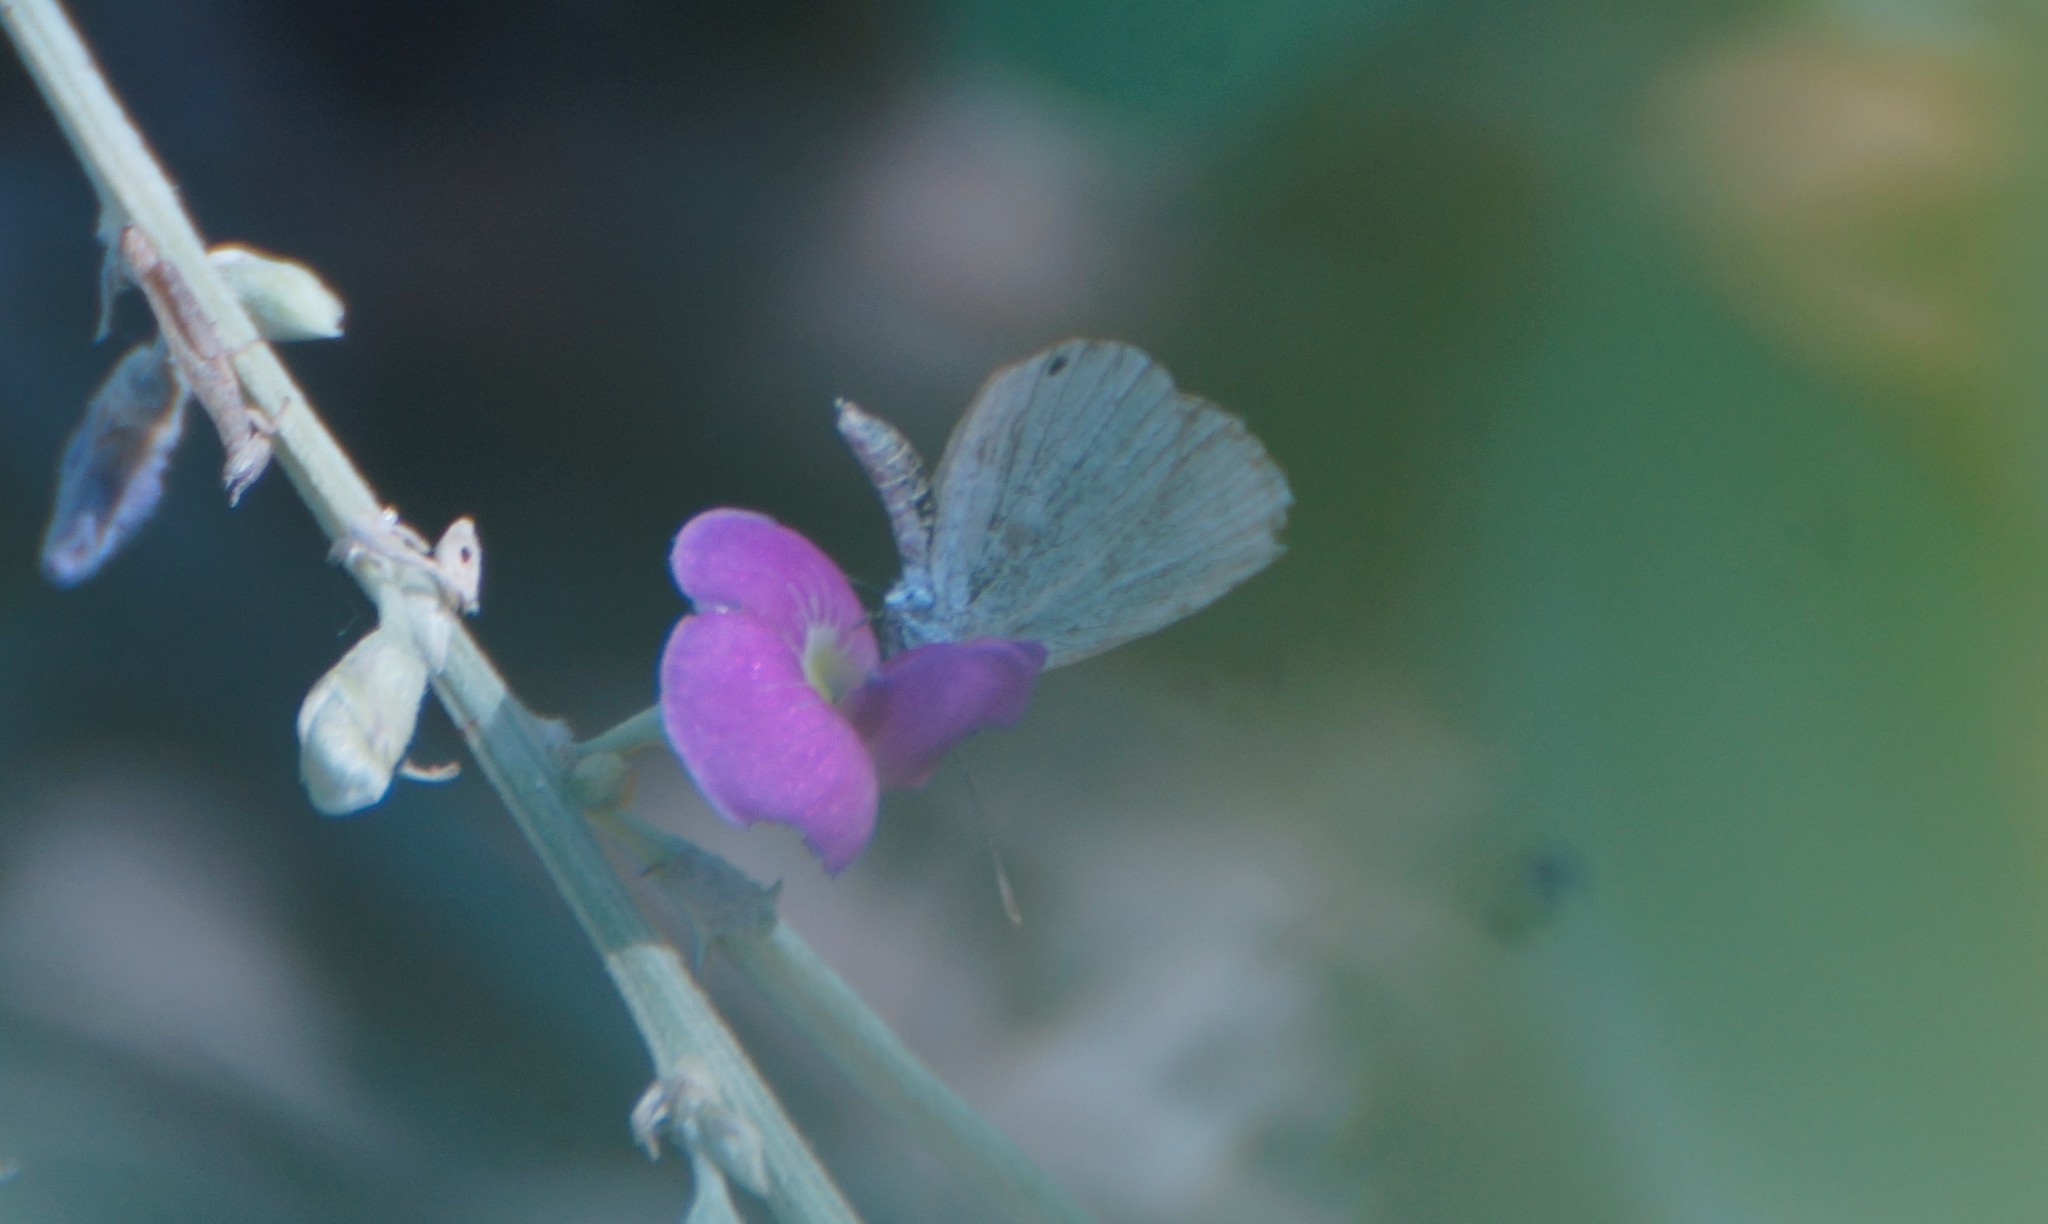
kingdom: Animalia
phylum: Arthropoda
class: Insecta
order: Lepidoptera
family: Lycaenidae
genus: Cupido
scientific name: Cupido nisa
